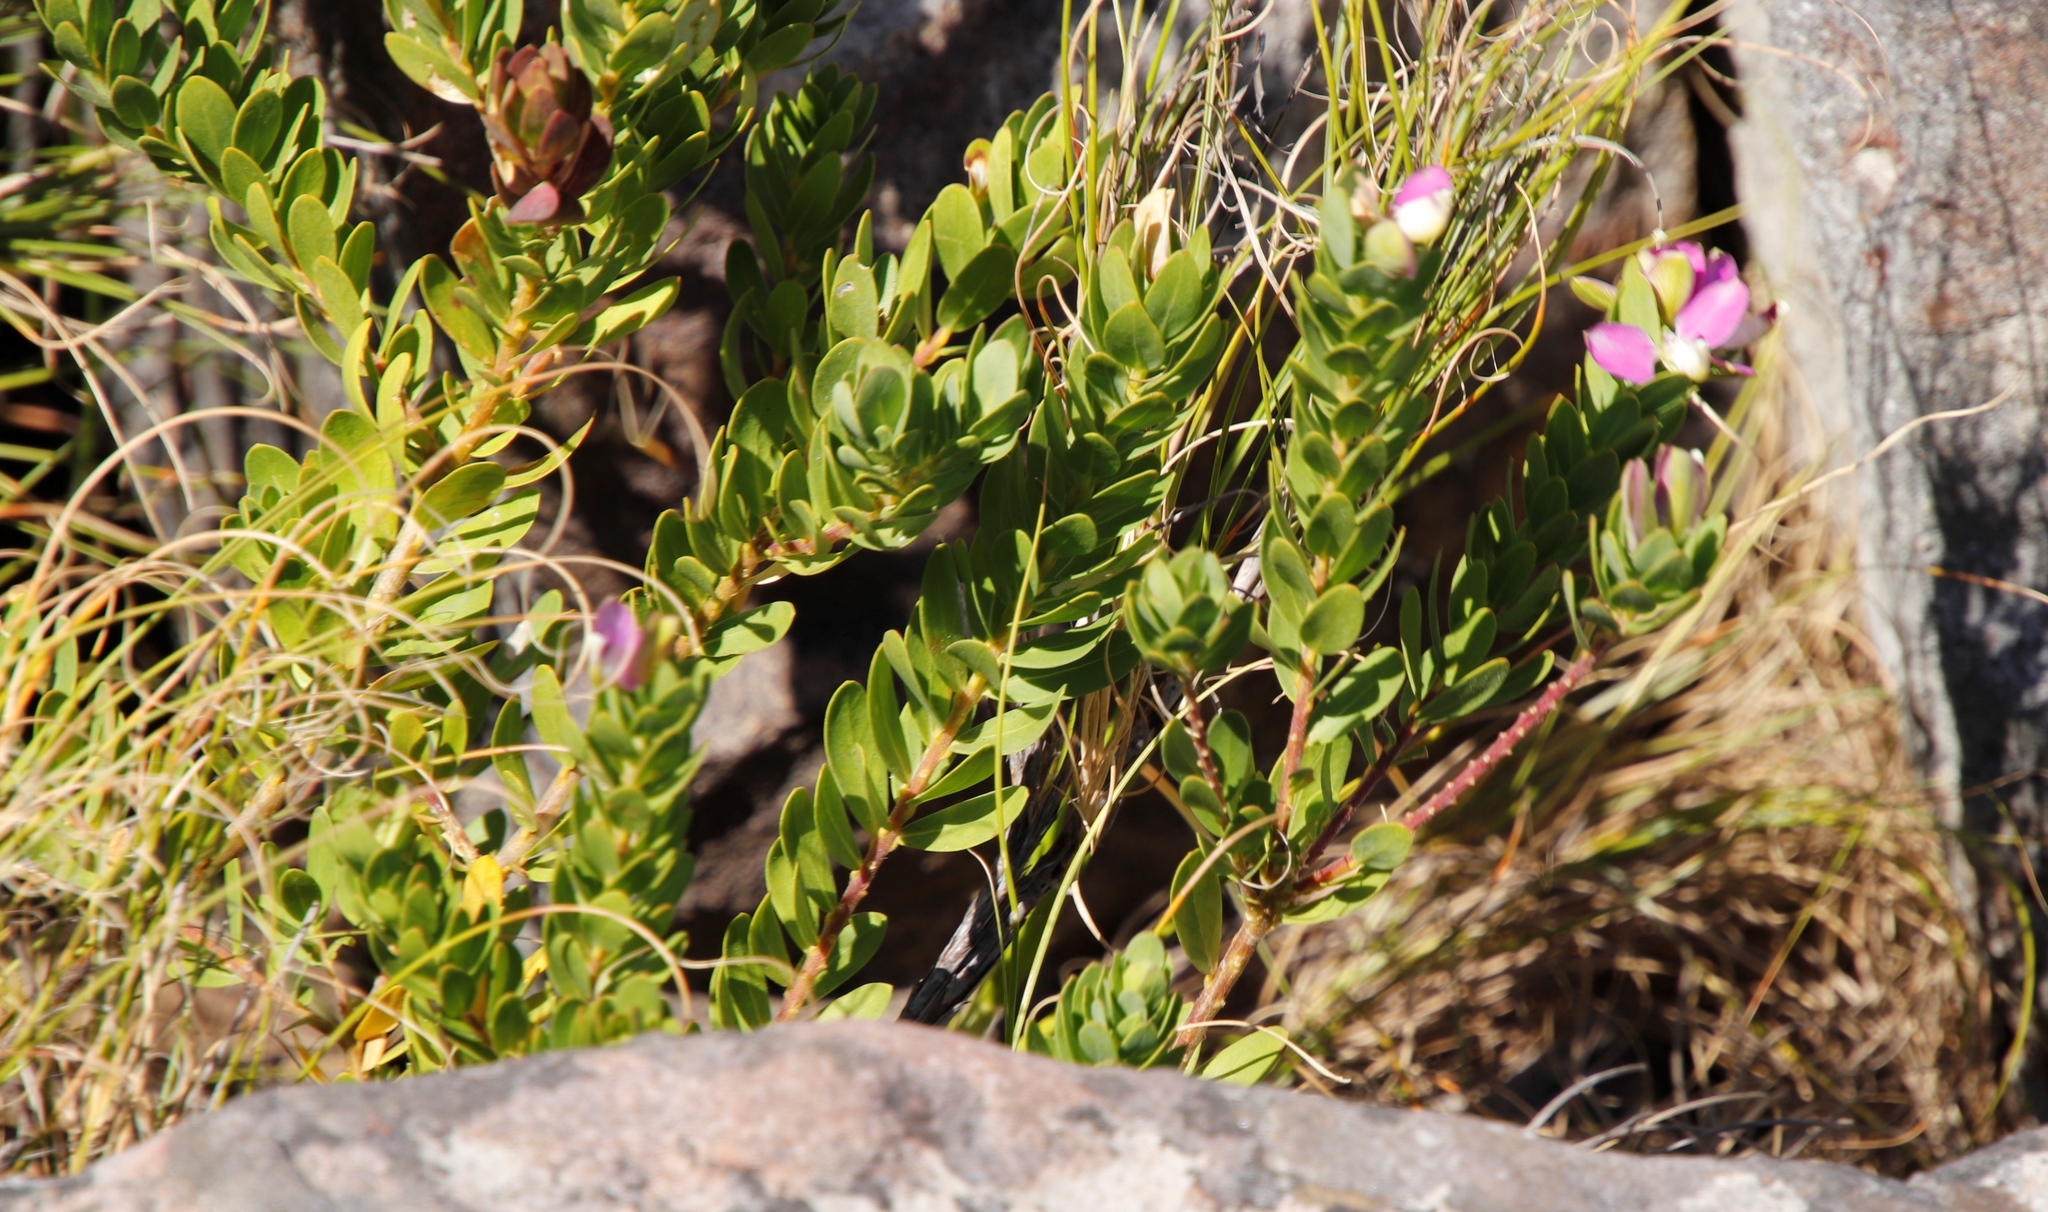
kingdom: Plantae
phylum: Tracheophyta
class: Magnoliopsida
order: Fabales
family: Polygalaceae
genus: Polygala
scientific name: Polygala myrtifolia
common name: Myrtle-leaf milkwort
